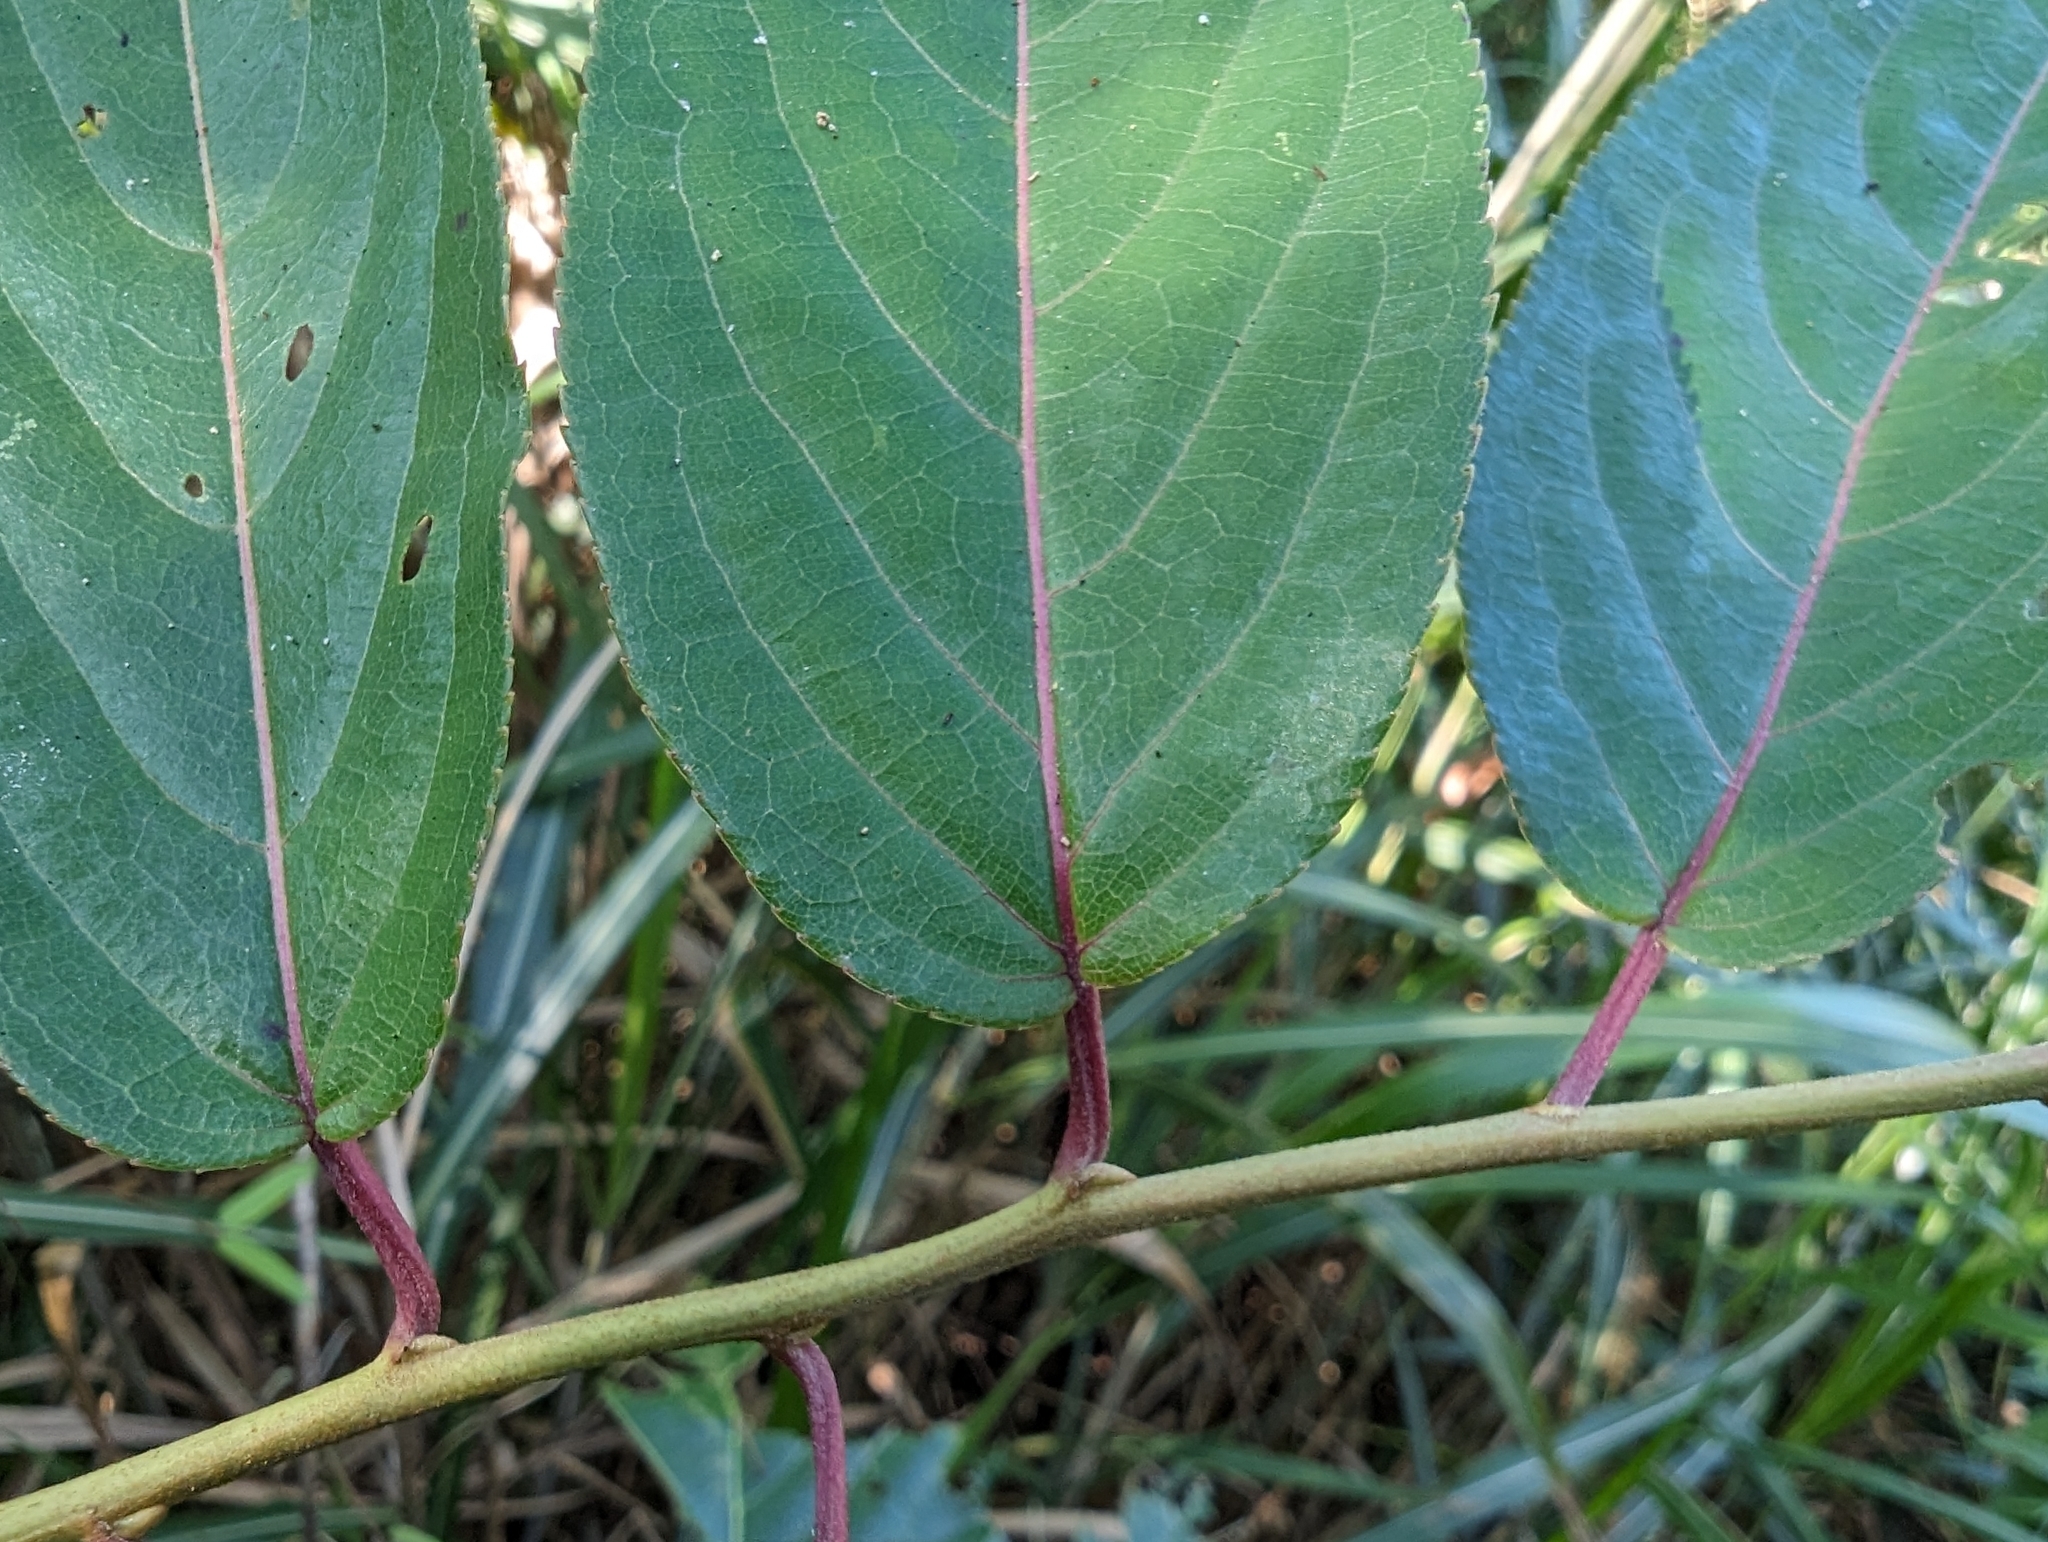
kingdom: Plantae
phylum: Tracheophyta
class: Magnoliopsida
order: Crossosomatales
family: Stachyuraceae
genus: Stachyurus
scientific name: Stachyurus himalaicus
